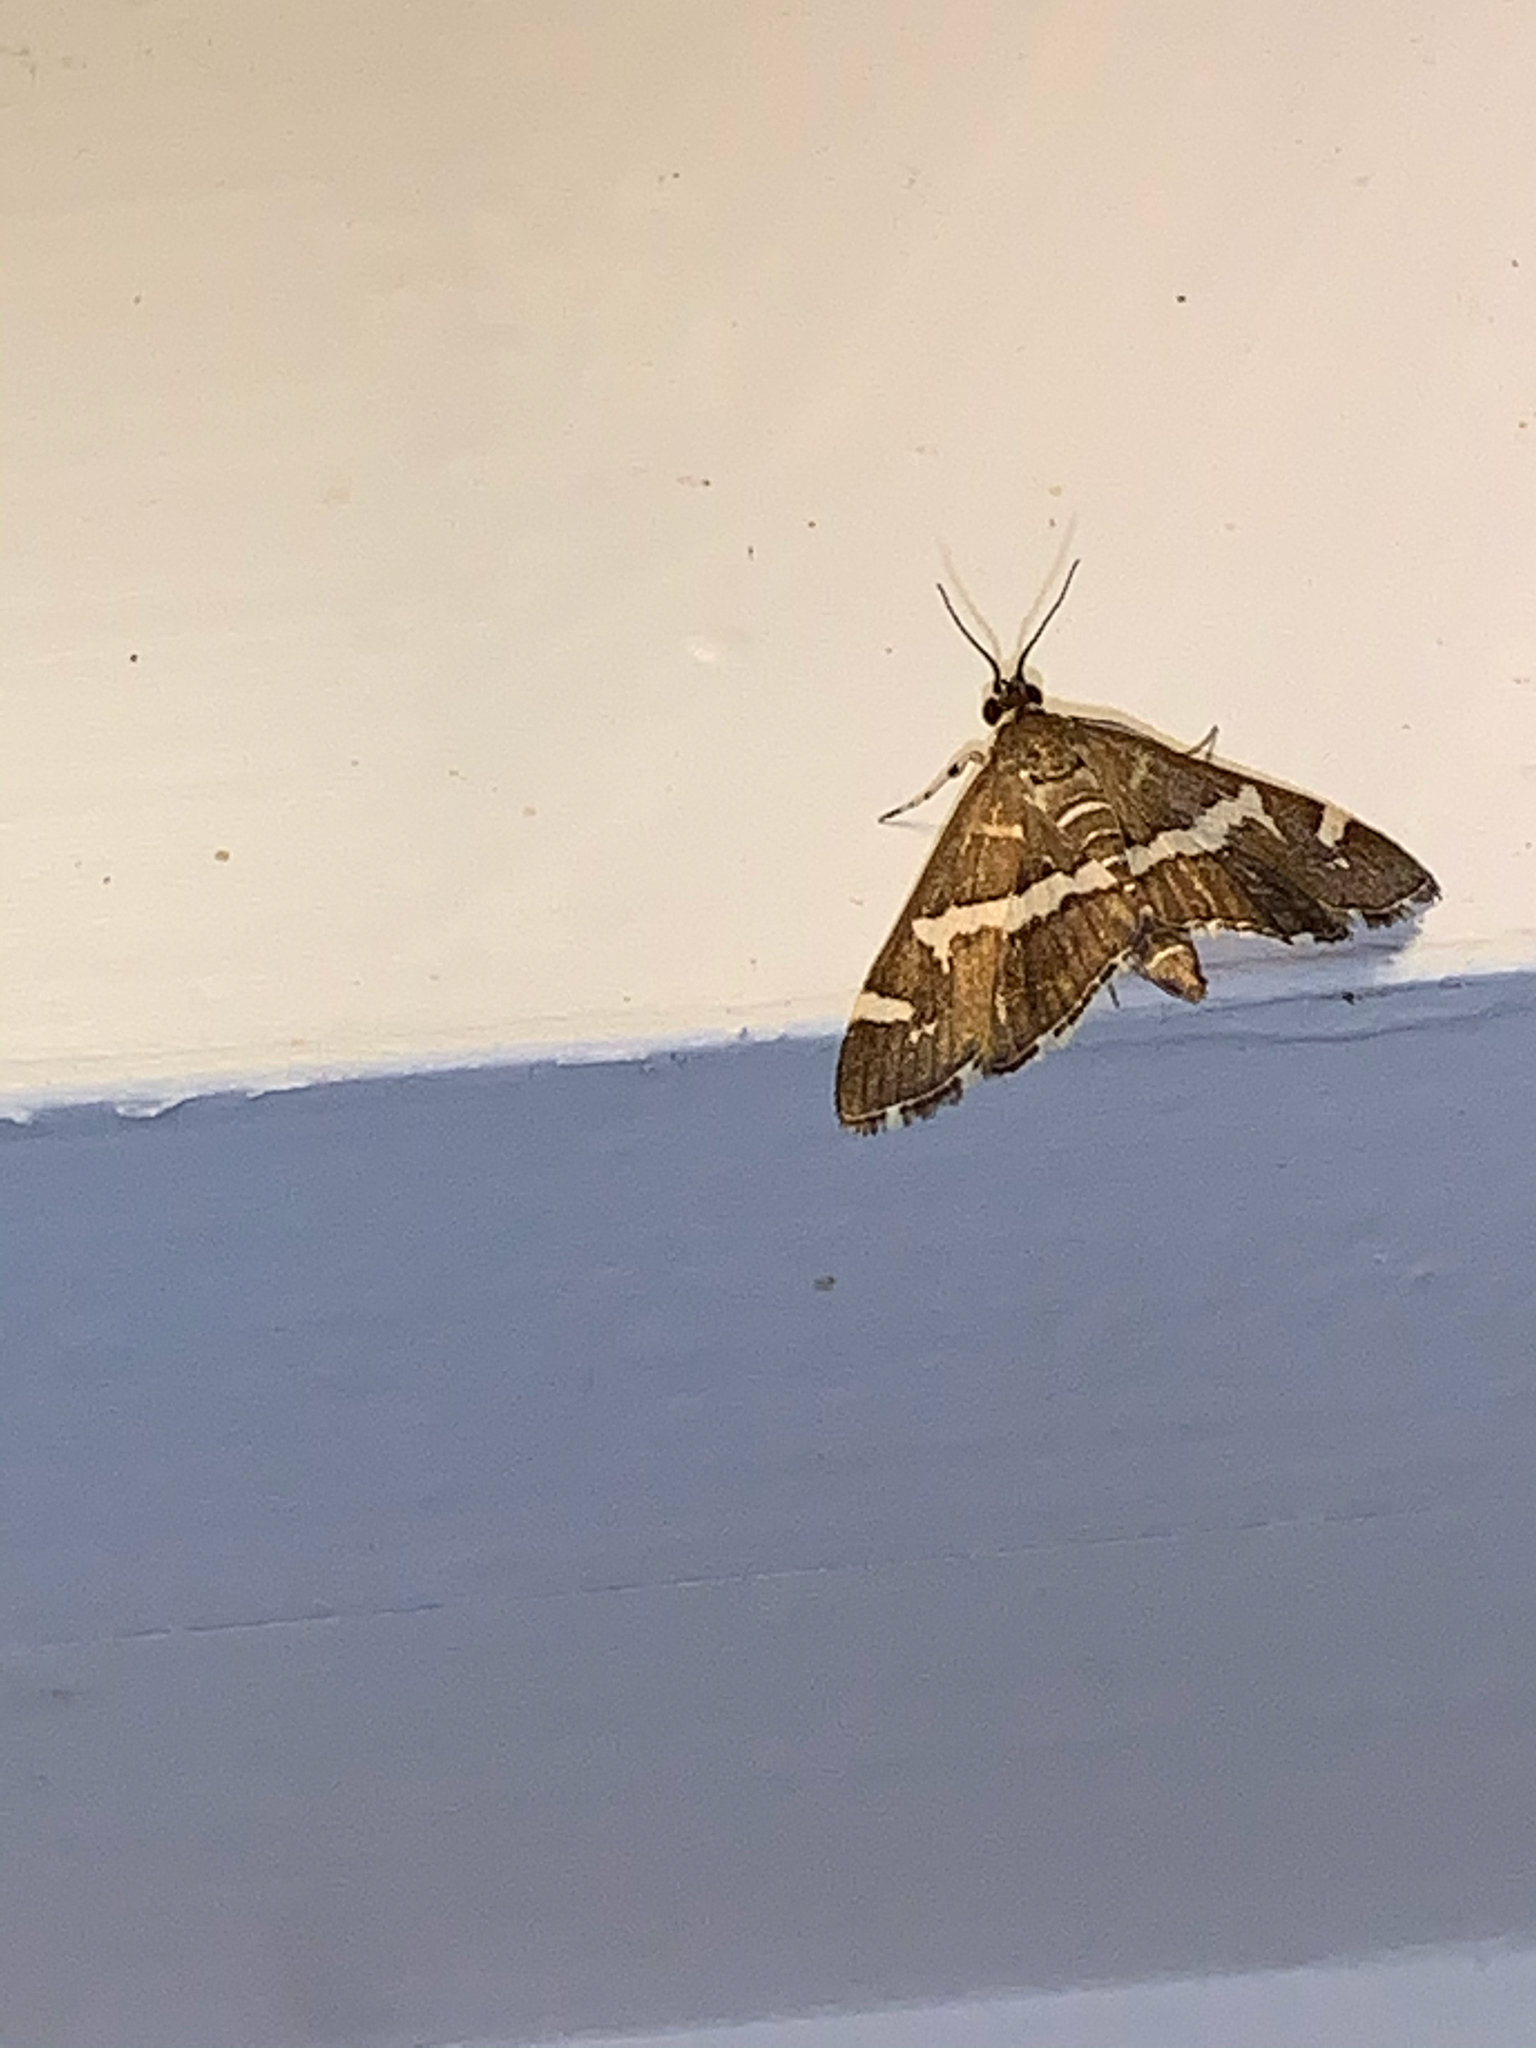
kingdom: Animalia
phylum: Arthropoda
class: Insecta
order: Lepidoptera
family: Crambidae
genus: Spoladea
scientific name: Spoladea recurvalis
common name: Beet webworm moth
